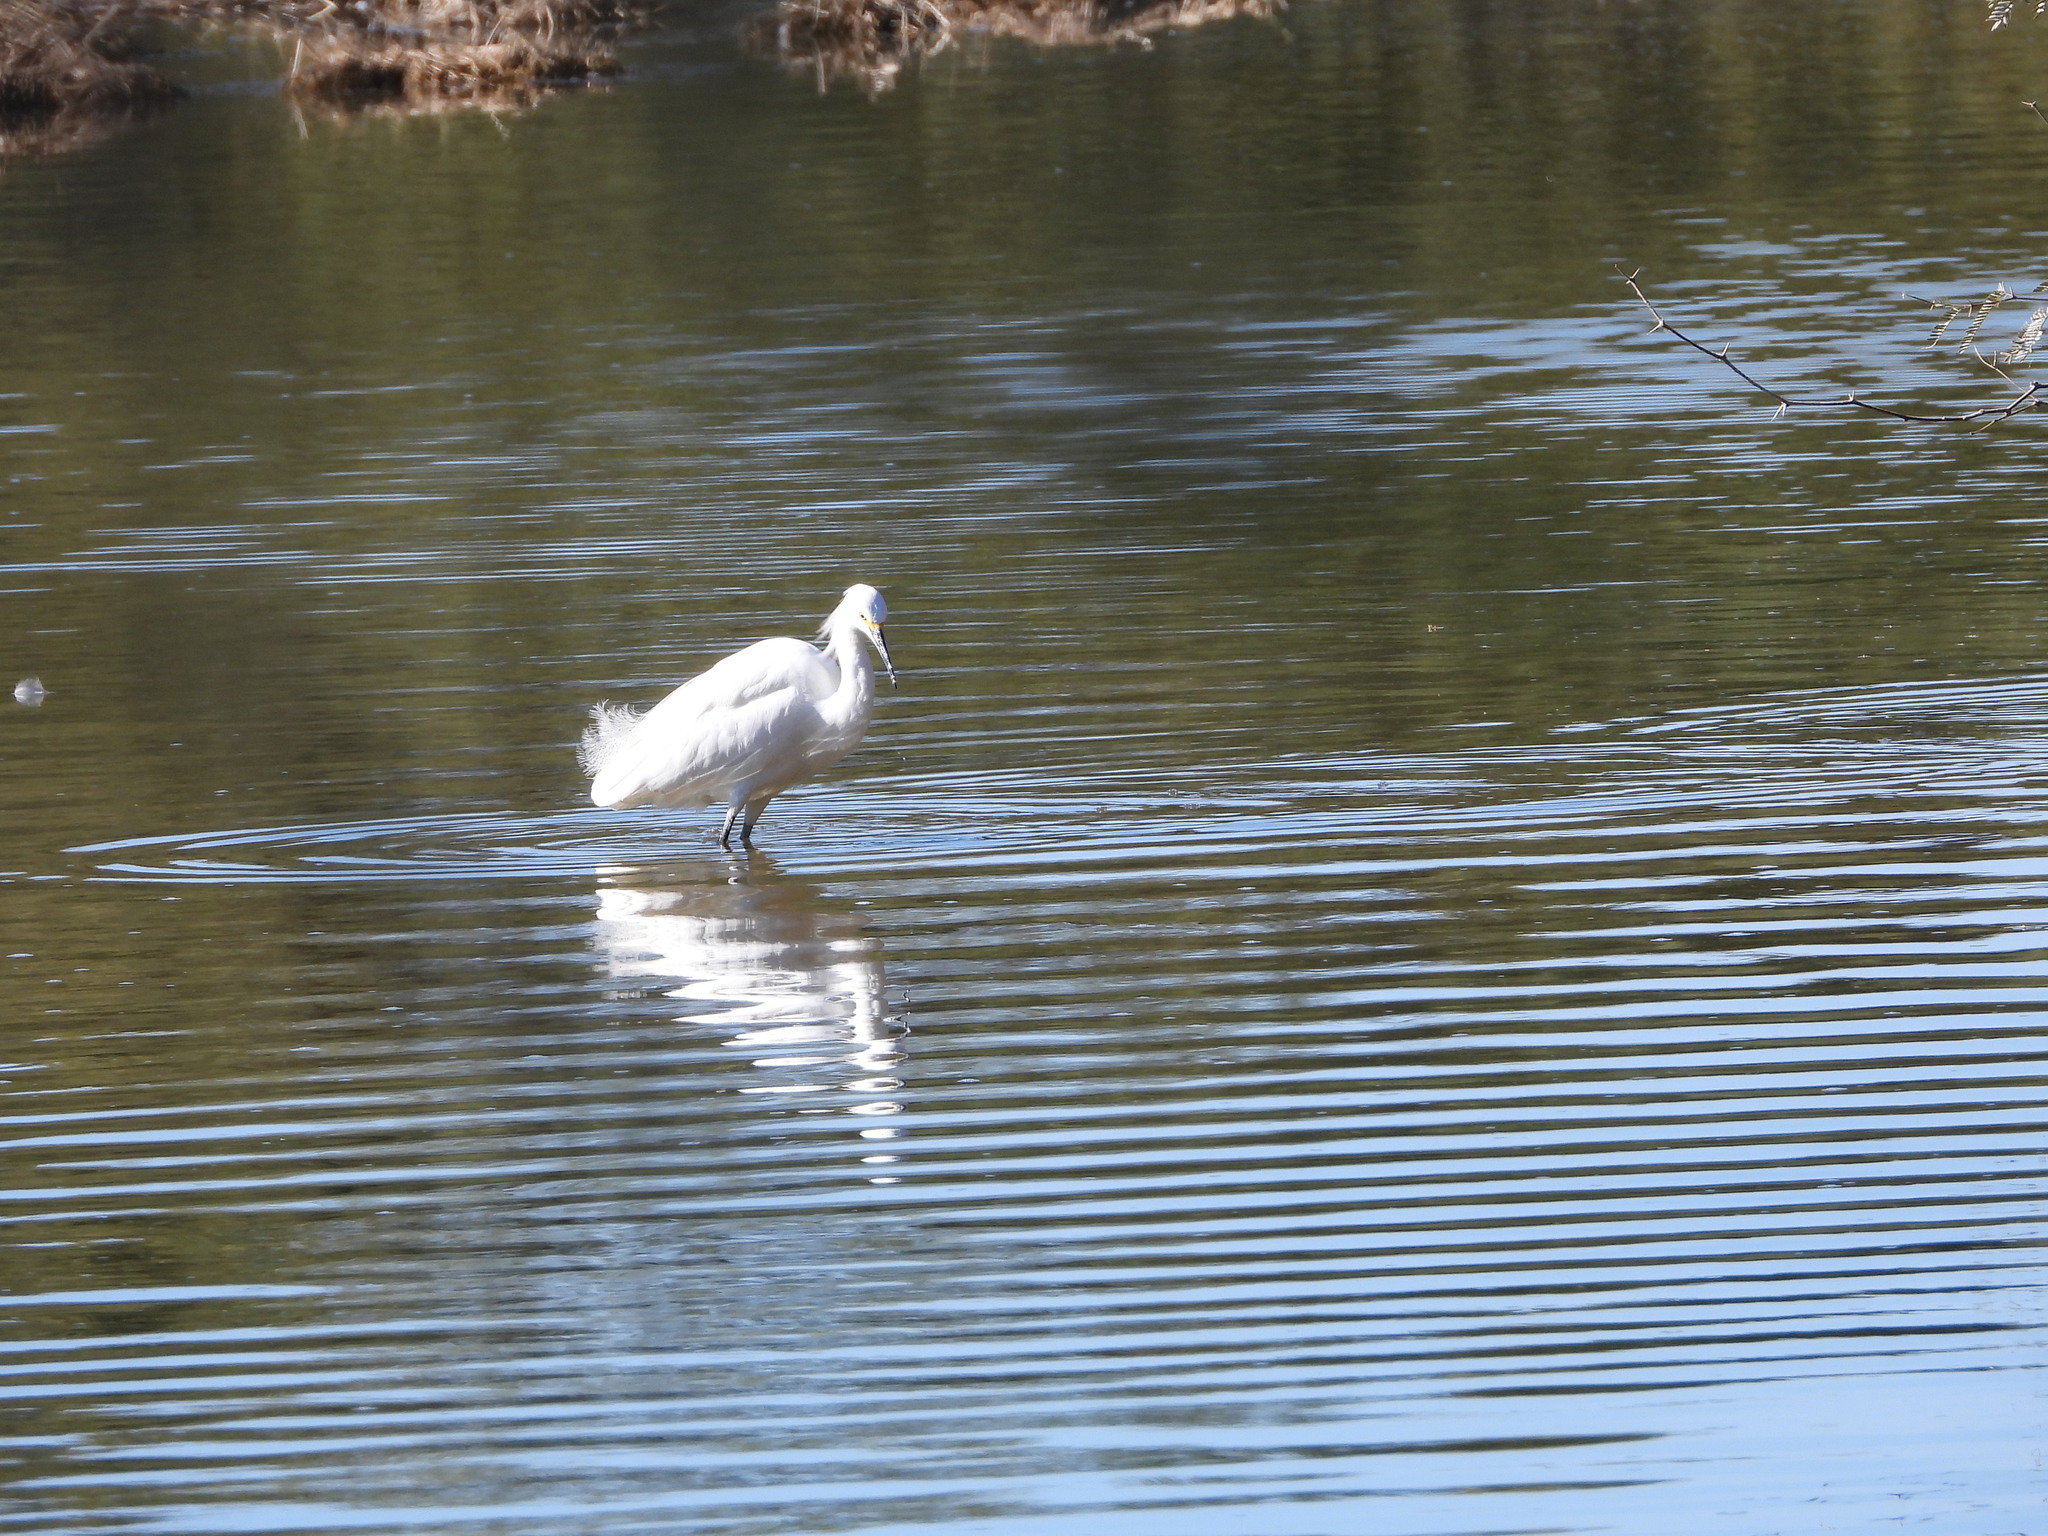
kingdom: Animalia
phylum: Chordata
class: Aves
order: Pelecaniformes
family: Ardeidae
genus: Egretta
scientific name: Egretta thula
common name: Snowy egret
